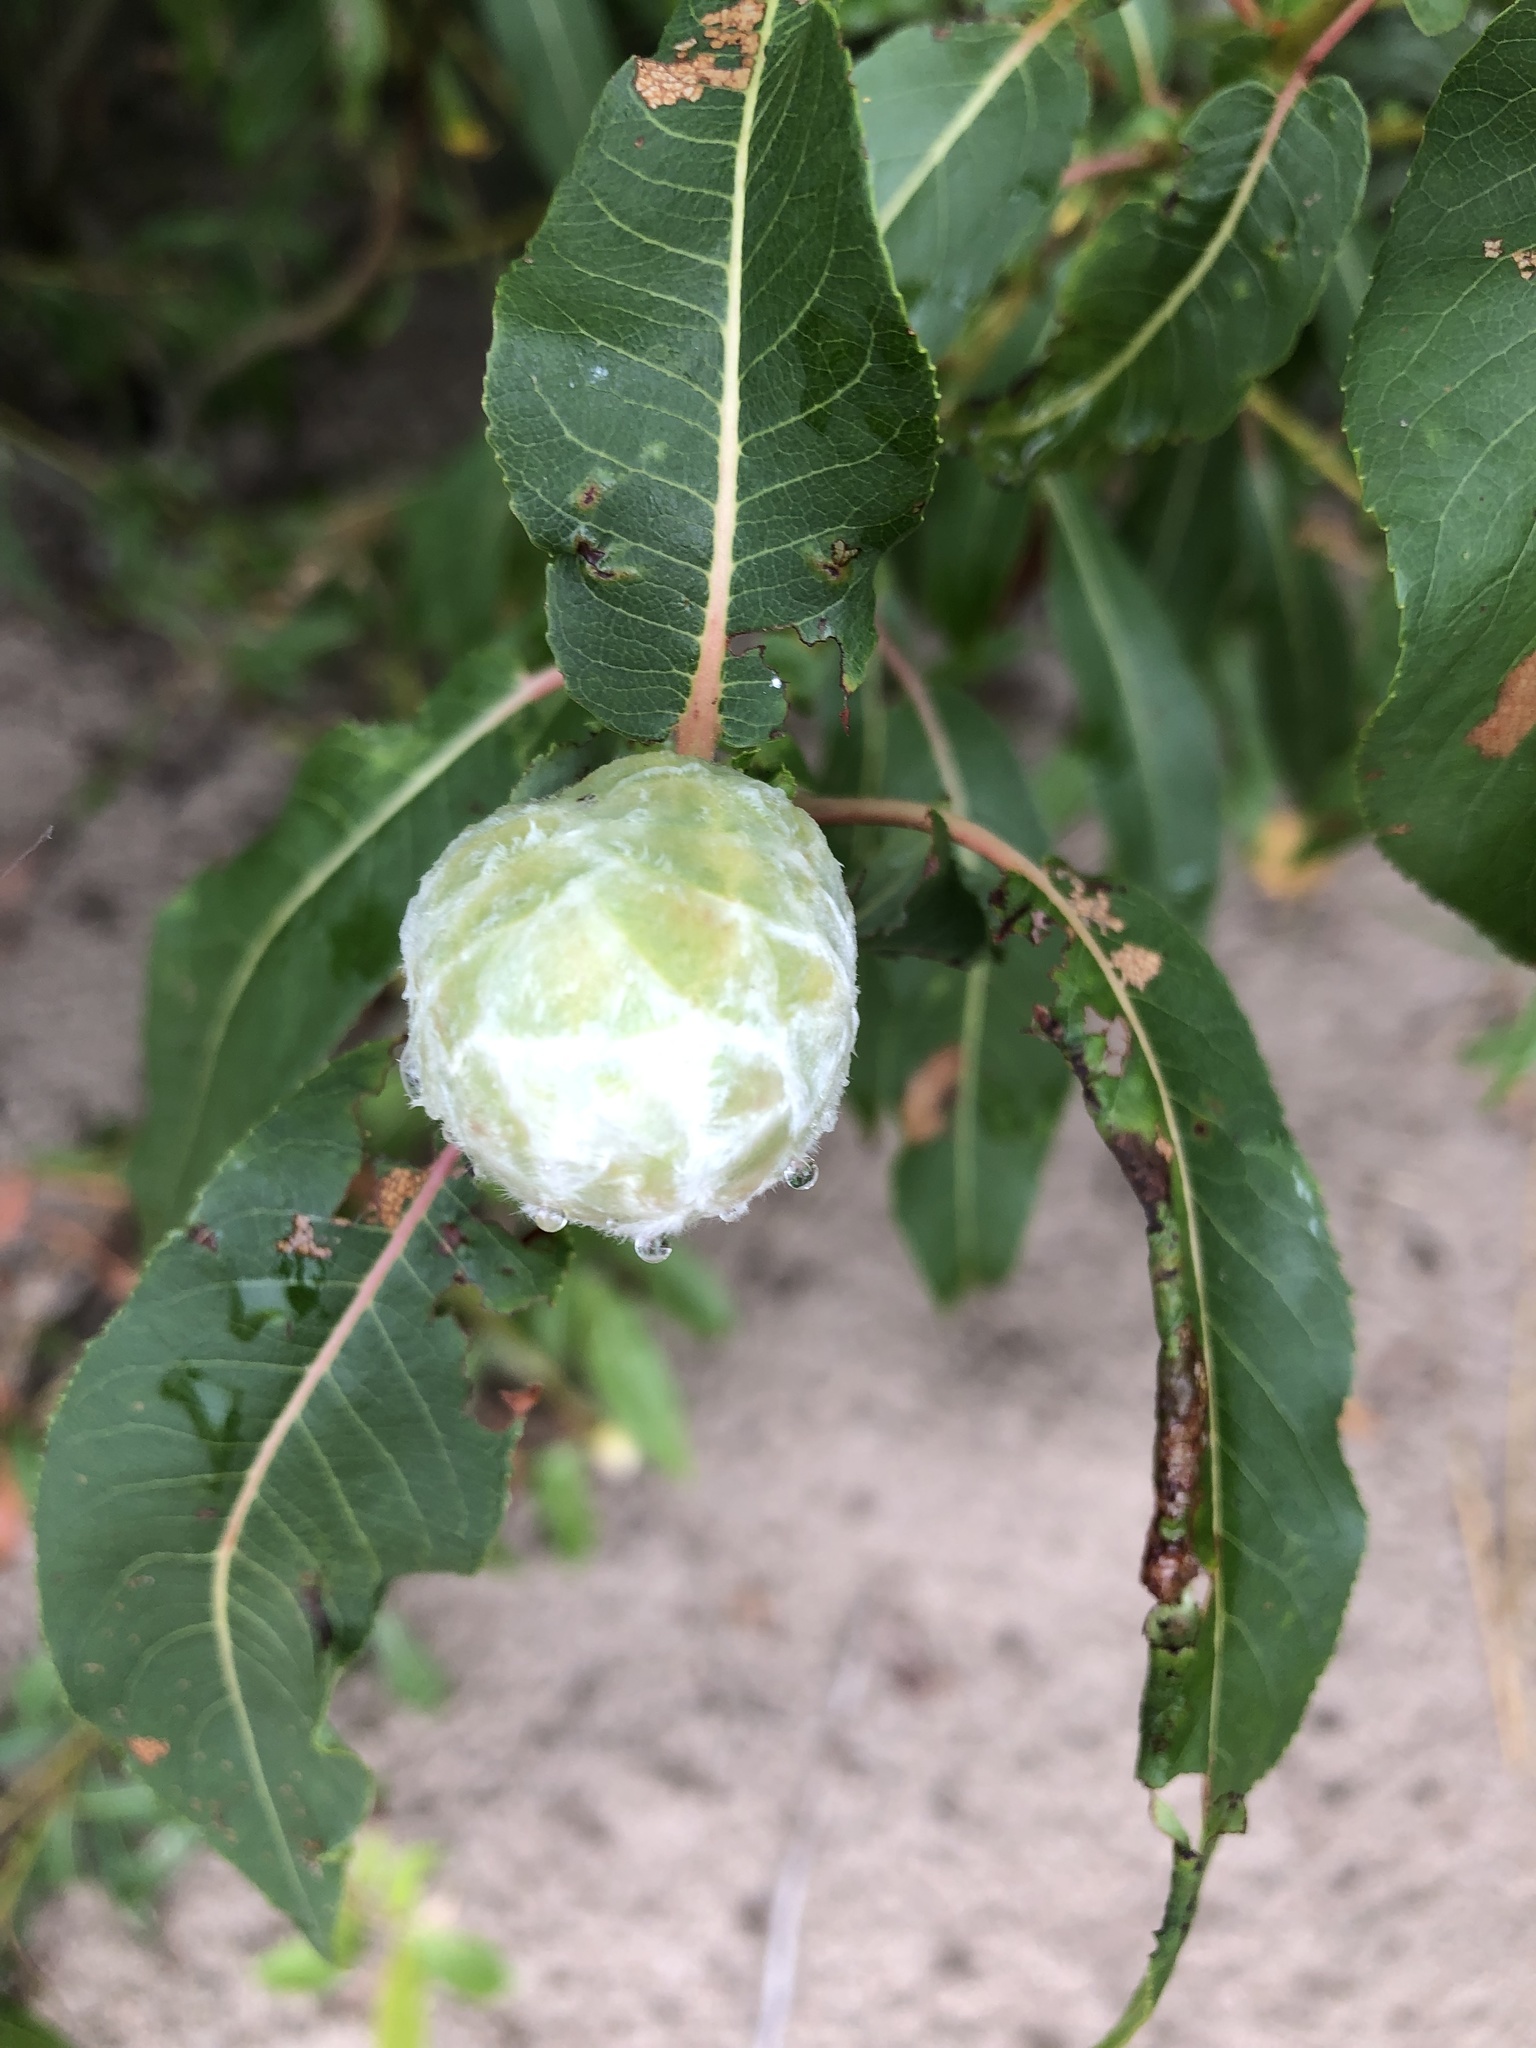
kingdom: Animalia
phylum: Arthropoda
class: Insecta
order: Diptera
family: Cecidomyiidae
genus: Rabdophaga
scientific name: Rabdophaga strobiloides
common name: Willow pinecone gall midge
